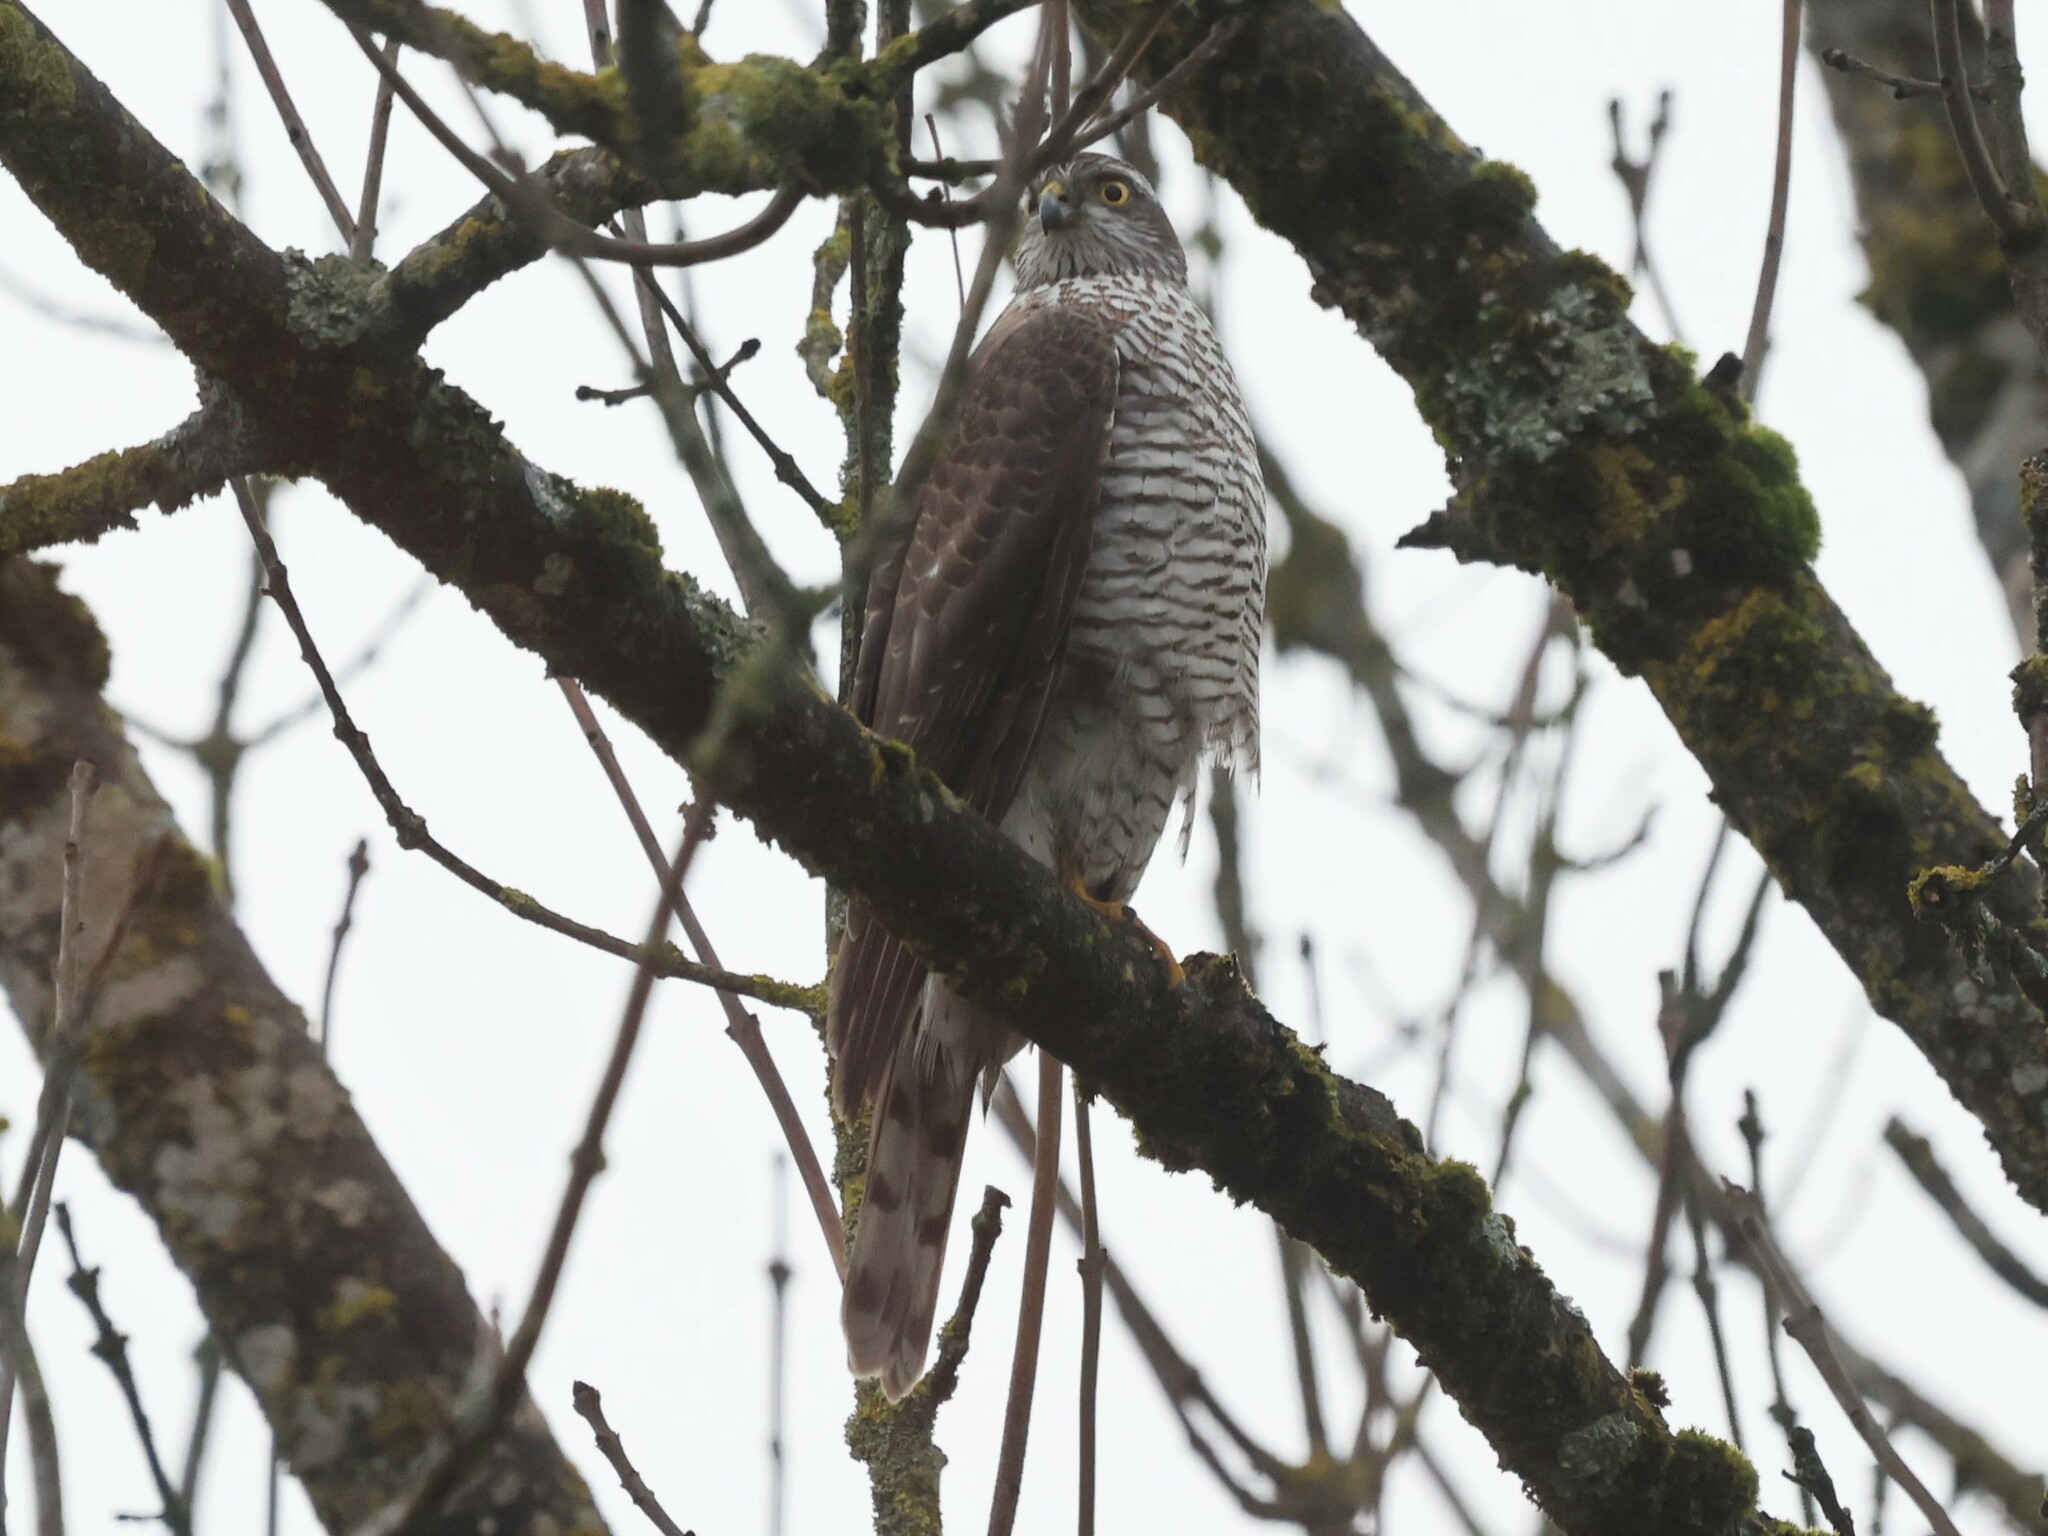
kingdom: Animalia
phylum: Chordata
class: Aves
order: Accipitriformes
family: Accipitridae
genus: Accipiter
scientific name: Accipiter nisus
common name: Eurasian sparrowhawk
